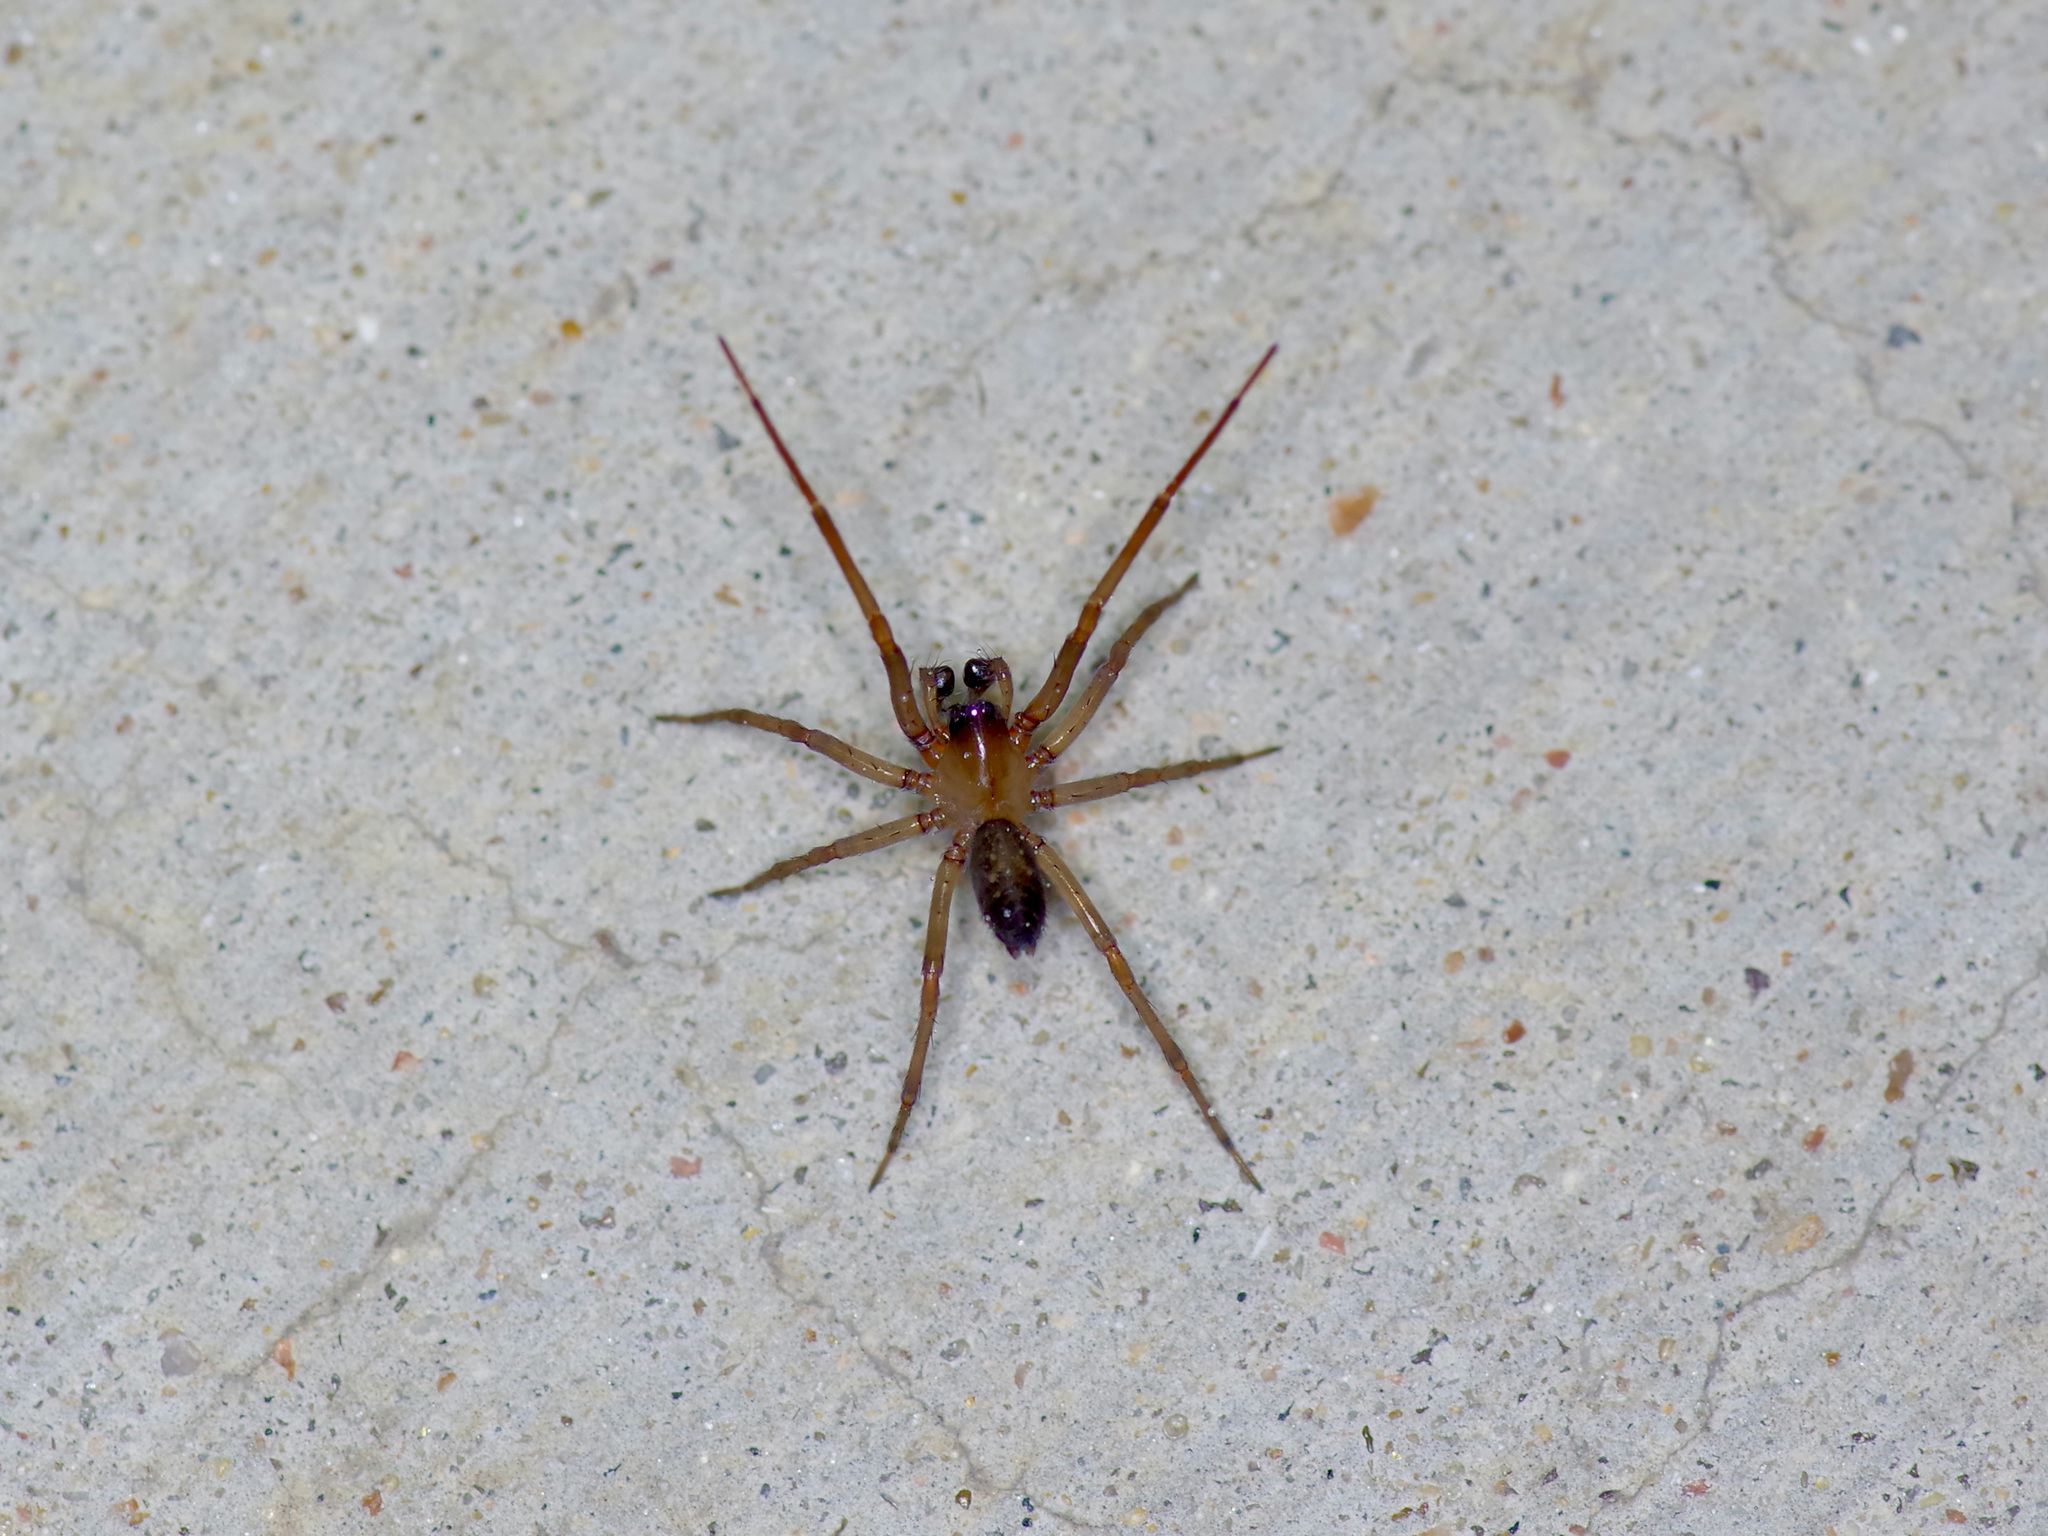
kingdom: Animalia
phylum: Arthropoda
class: Arachnida
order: Araneae
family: Desidae
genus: Metaltella
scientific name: Metaltella simoni
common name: Cribellate spider
